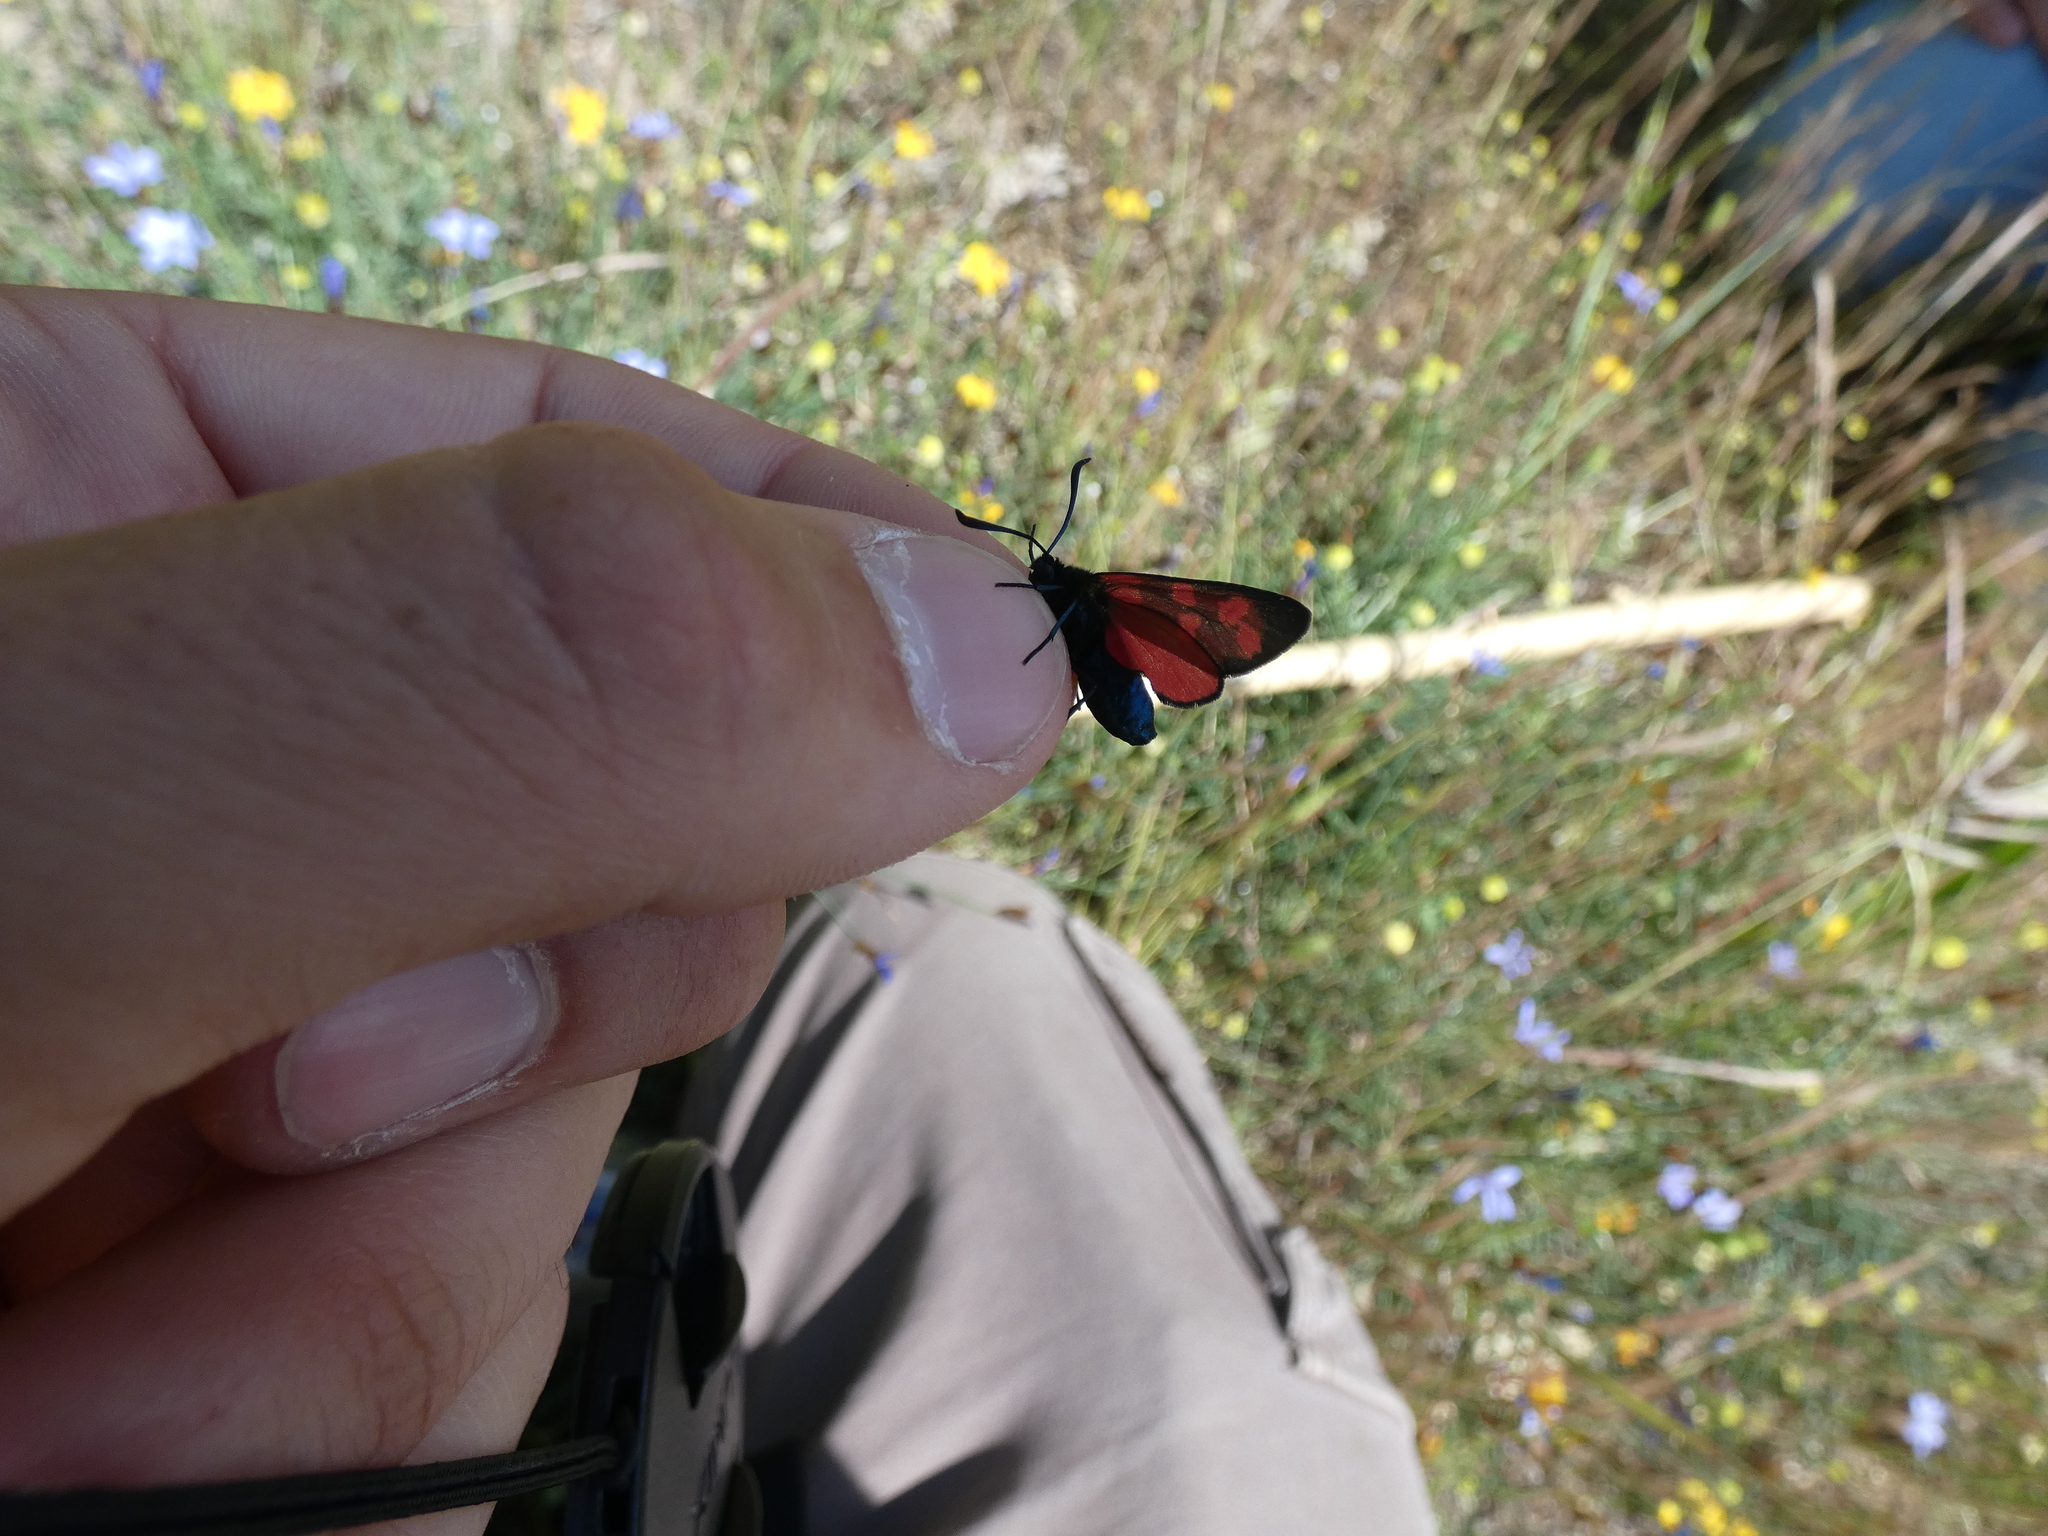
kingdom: Animalia
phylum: Arthropoda
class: Insecta
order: Lepidoptera
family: Zygaenidae
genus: Zygaena
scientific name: Zygaena transalpina
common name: Southern six spot burnet
